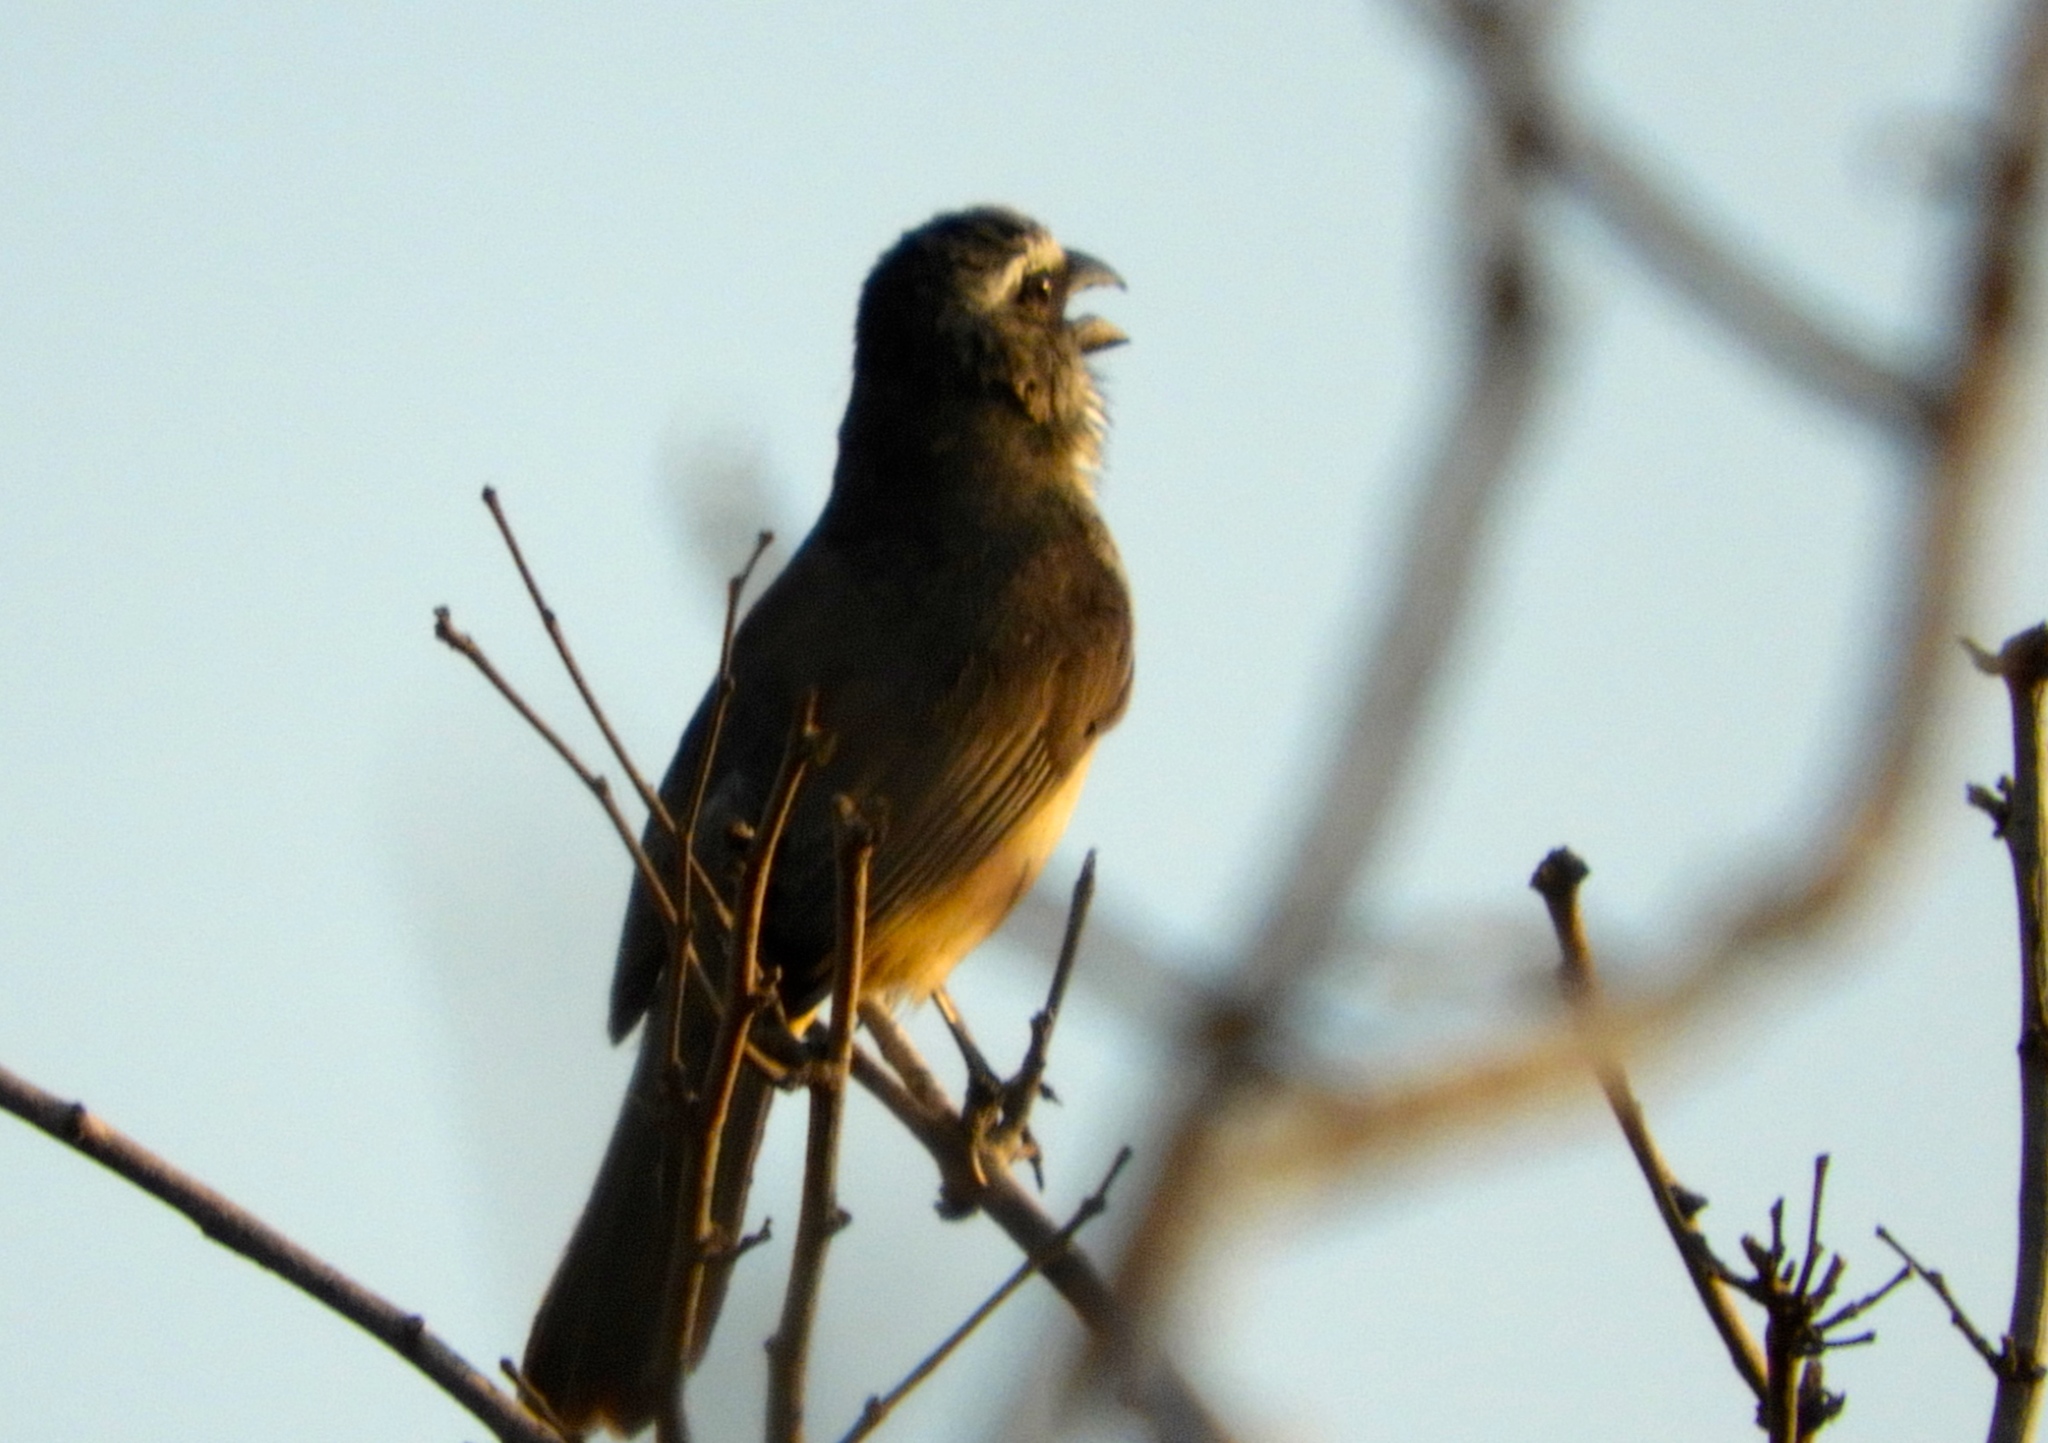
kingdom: Animalia
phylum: Chordata
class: Aves
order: Passeriformes
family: Thraupidae
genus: Saltator
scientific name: Saltator grandis
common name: Cinnamon-bellied saltator
